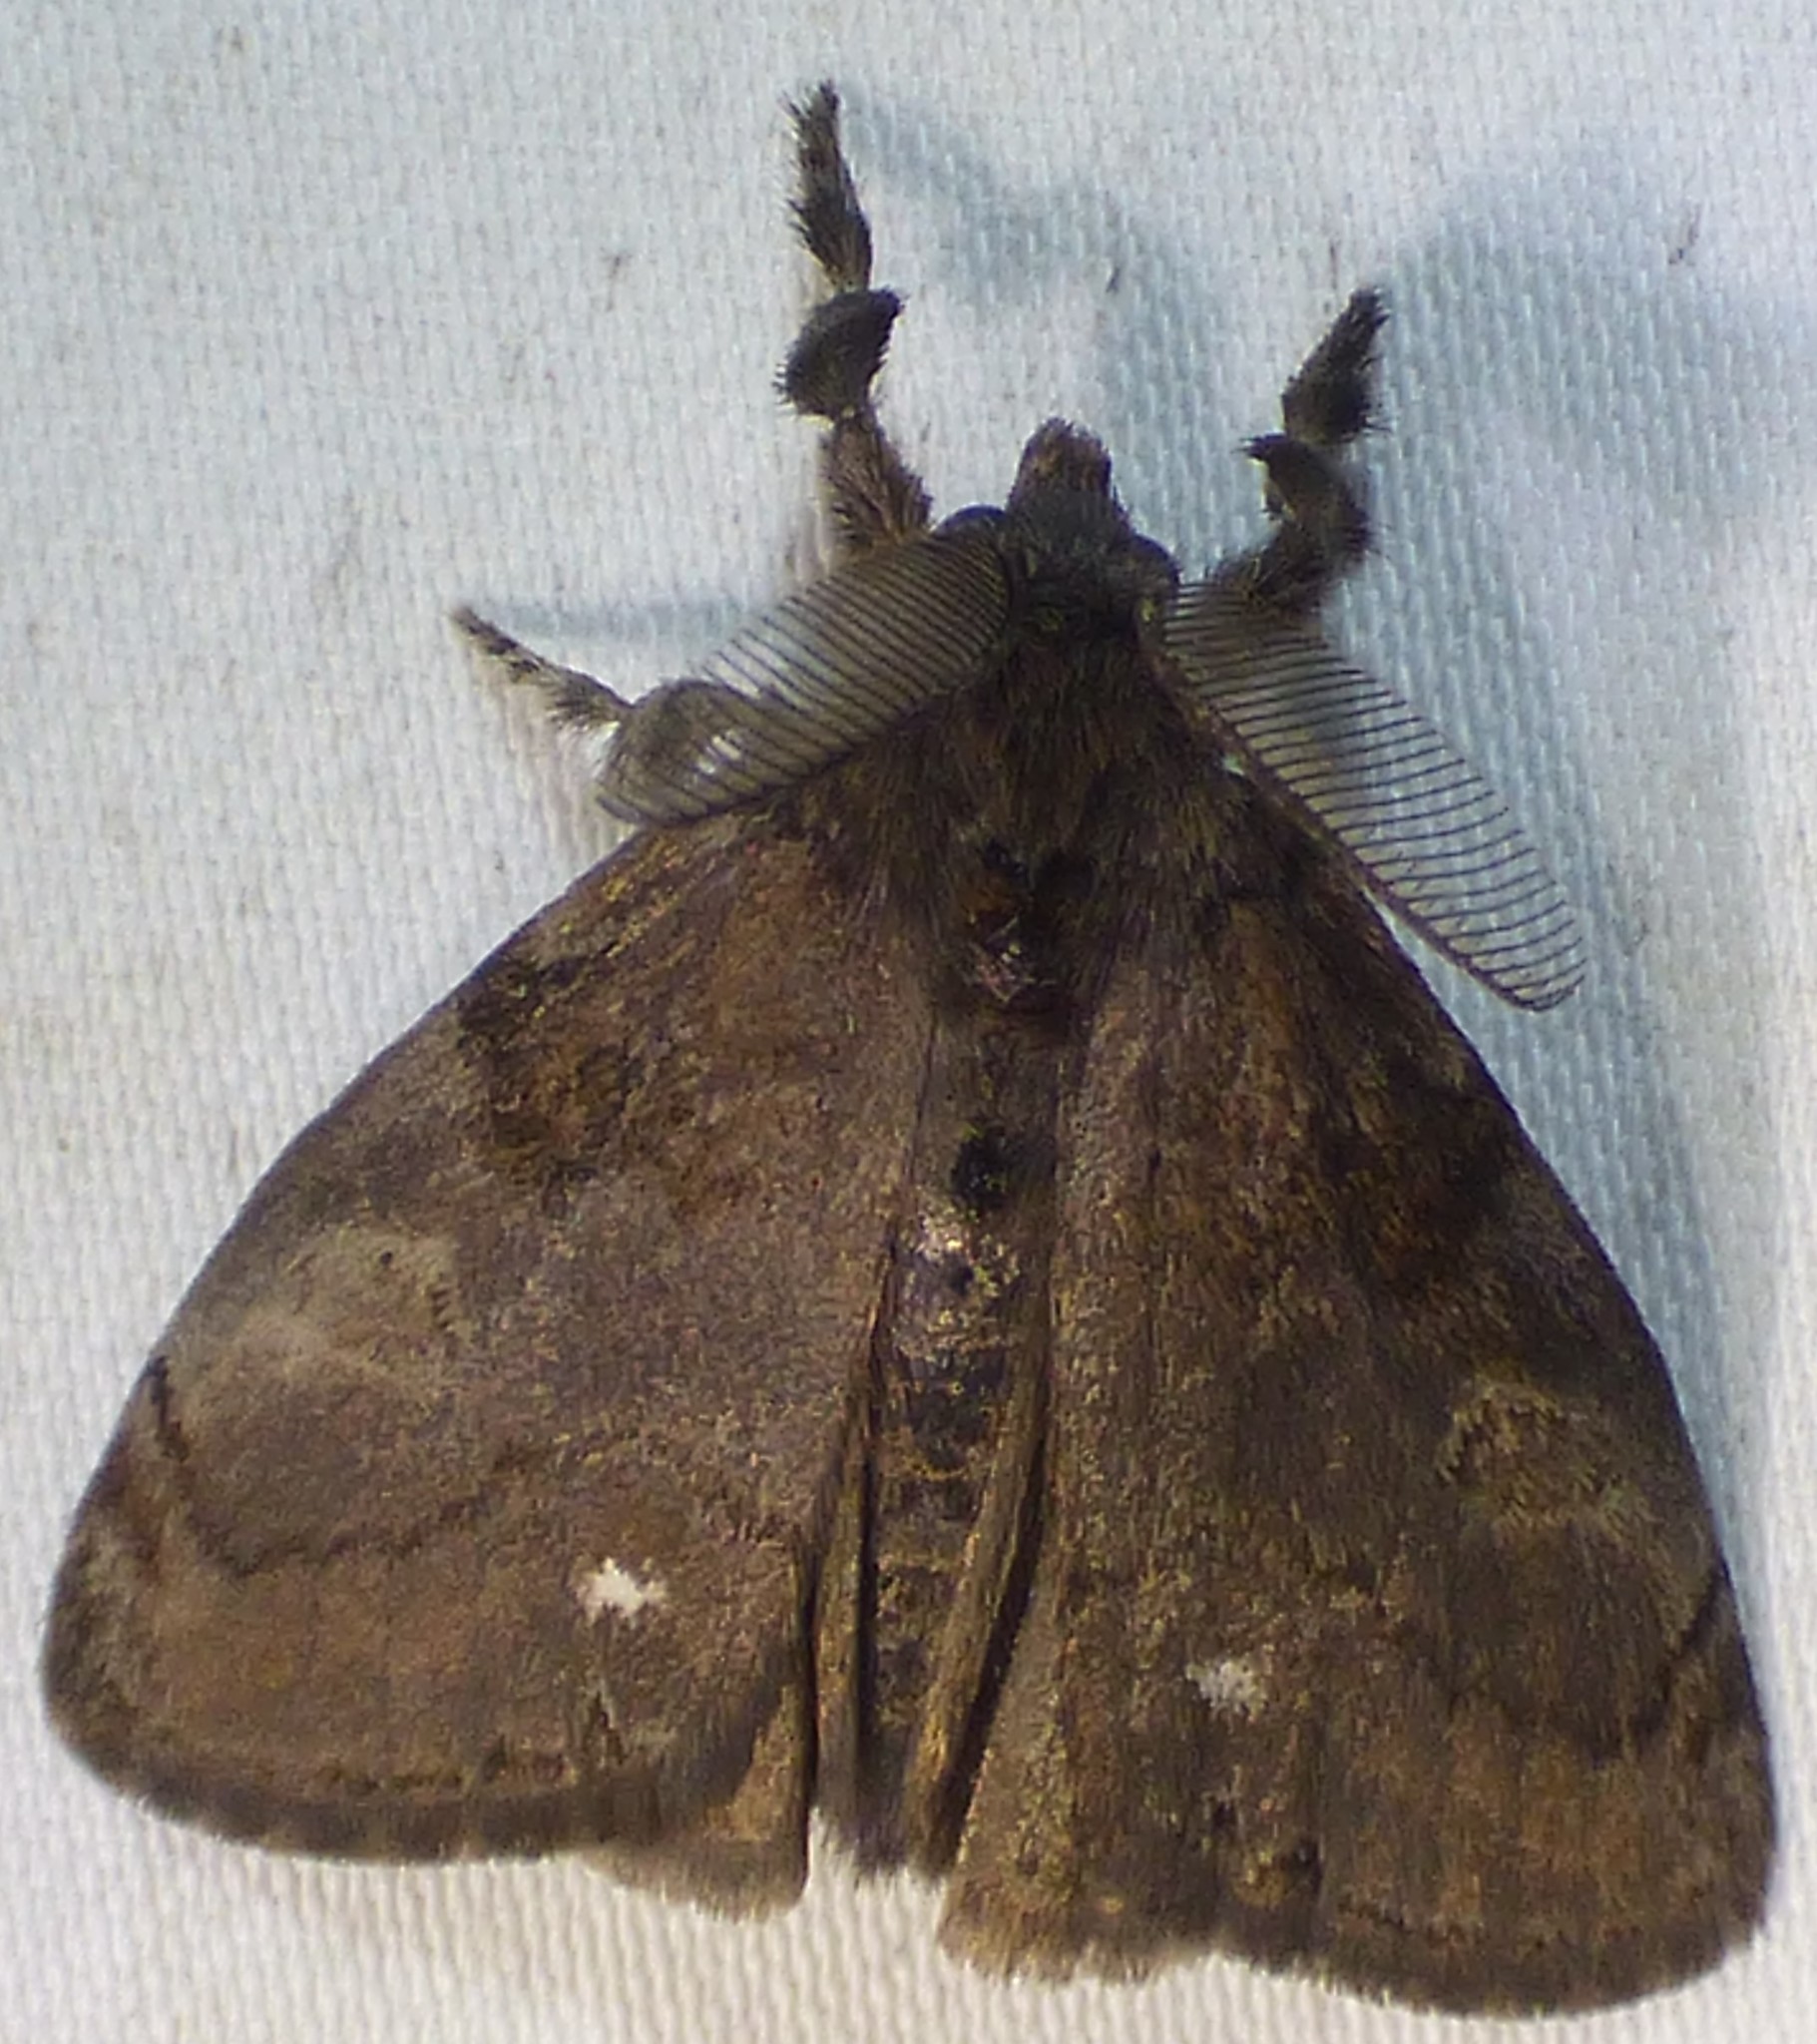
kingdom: Animalia
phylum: Arthropoda
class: Insecta
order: Lepidoptera
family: Erebidae
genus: Orgyia
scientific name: Orgyia leucostigma
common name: White-marked tussock moth
